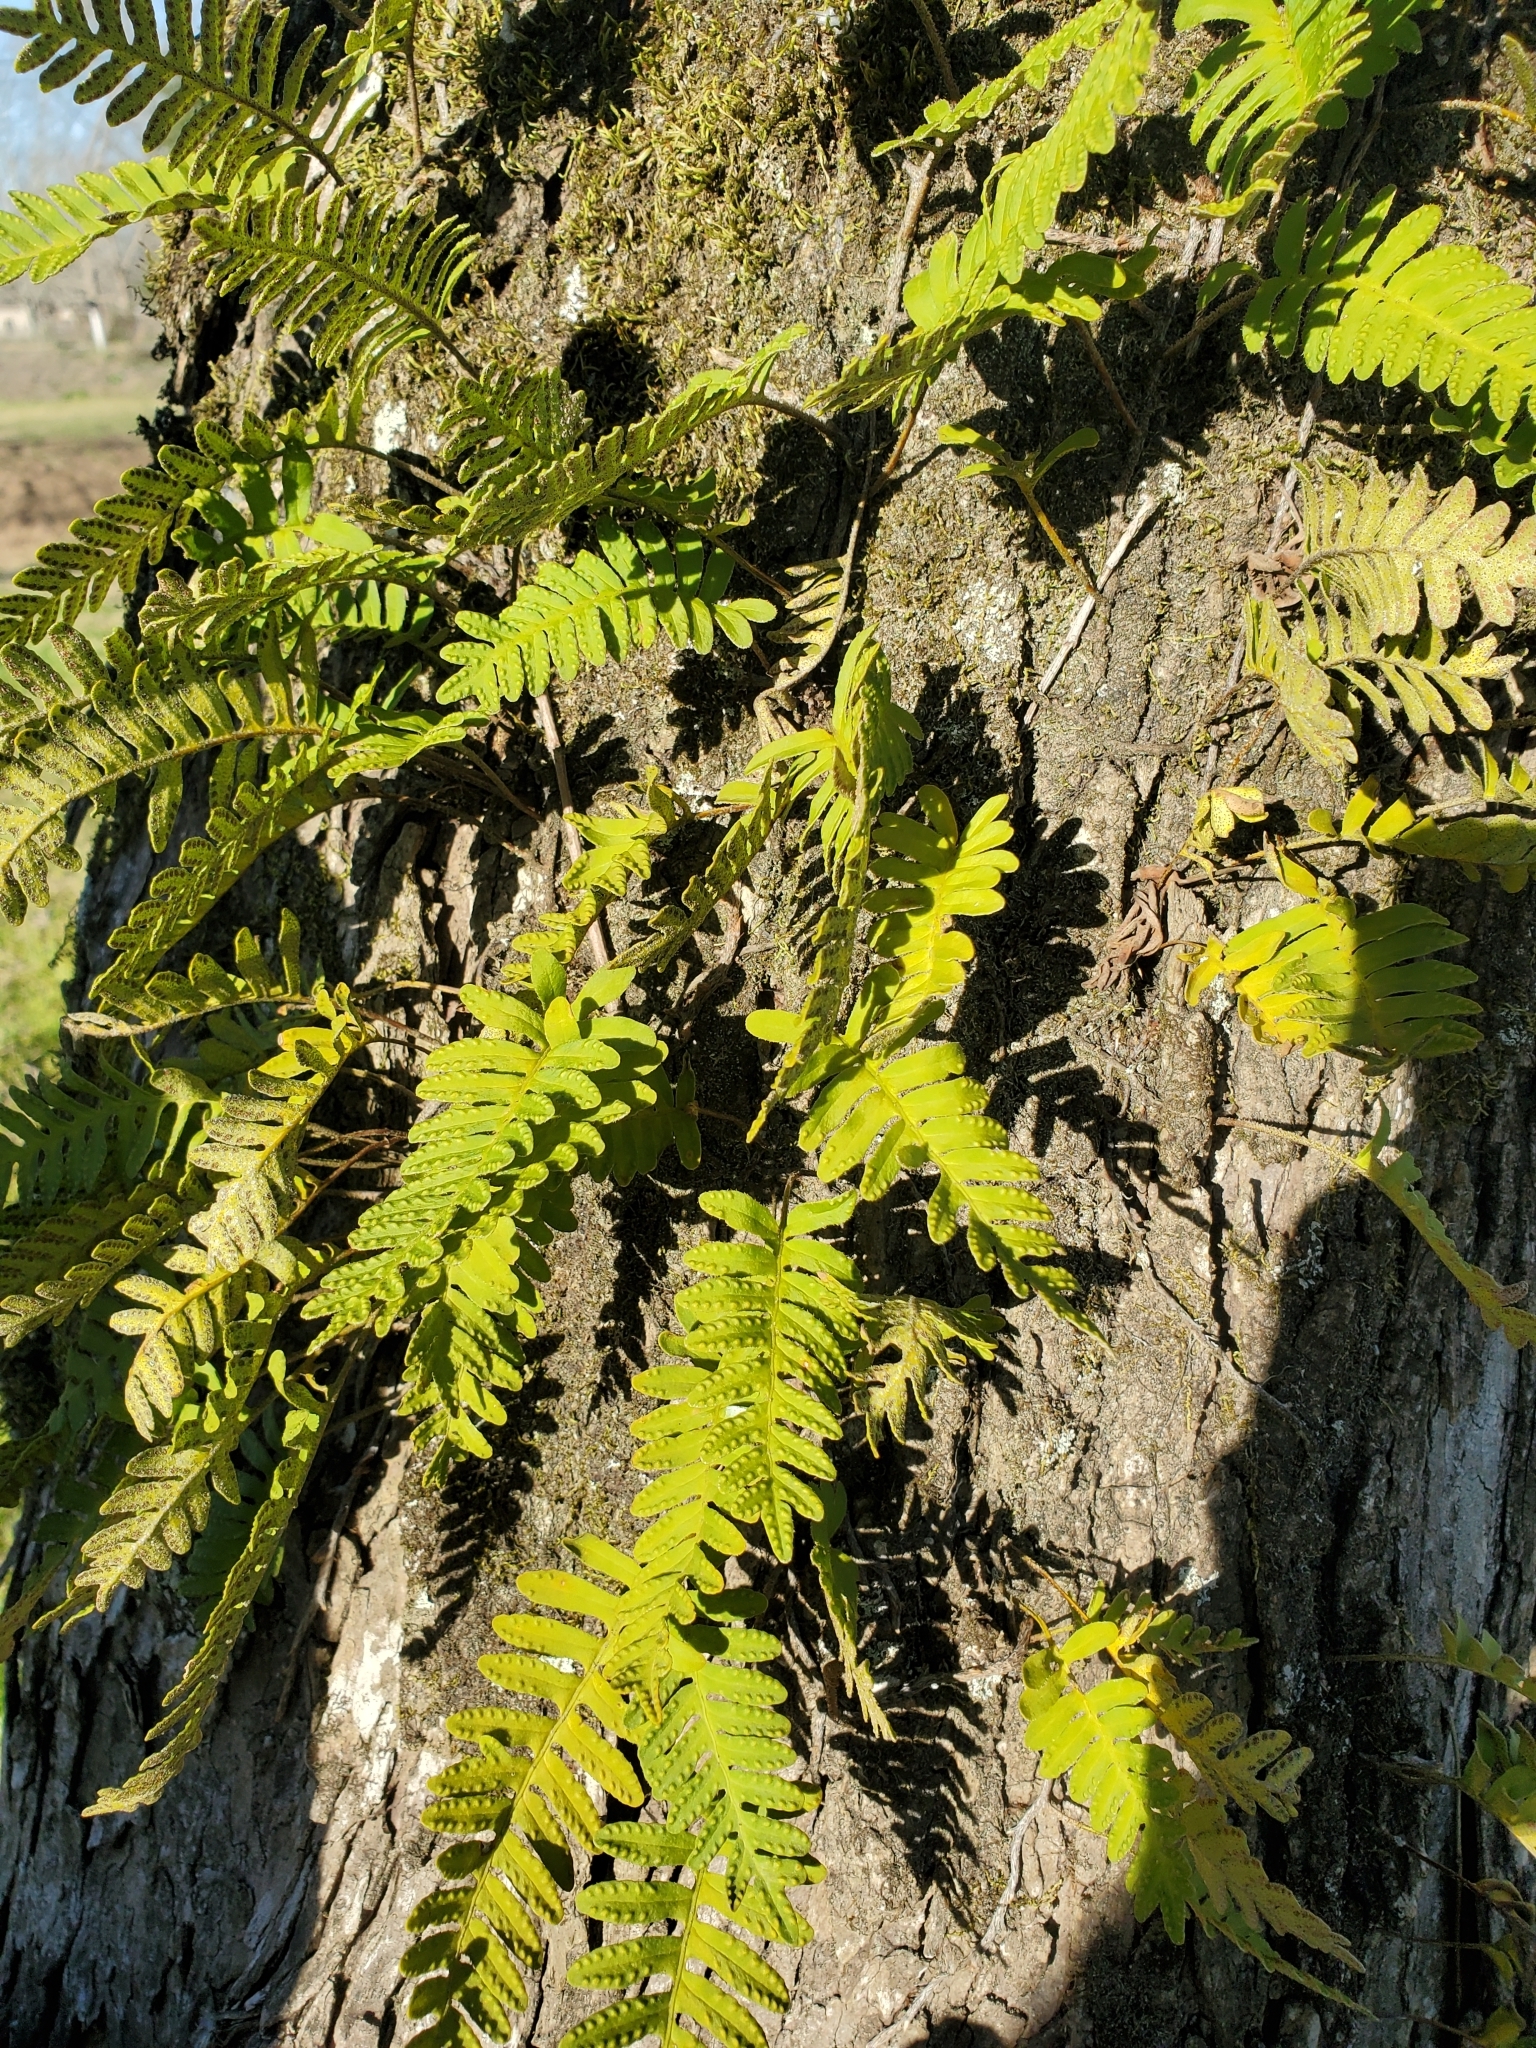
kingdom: Plantae
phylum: Tracheophyta
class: Polypodiopsida
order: Polypodiales
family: Polypodiaceae
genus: Pleopeltis
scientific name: Pleopeltis michauxiana
